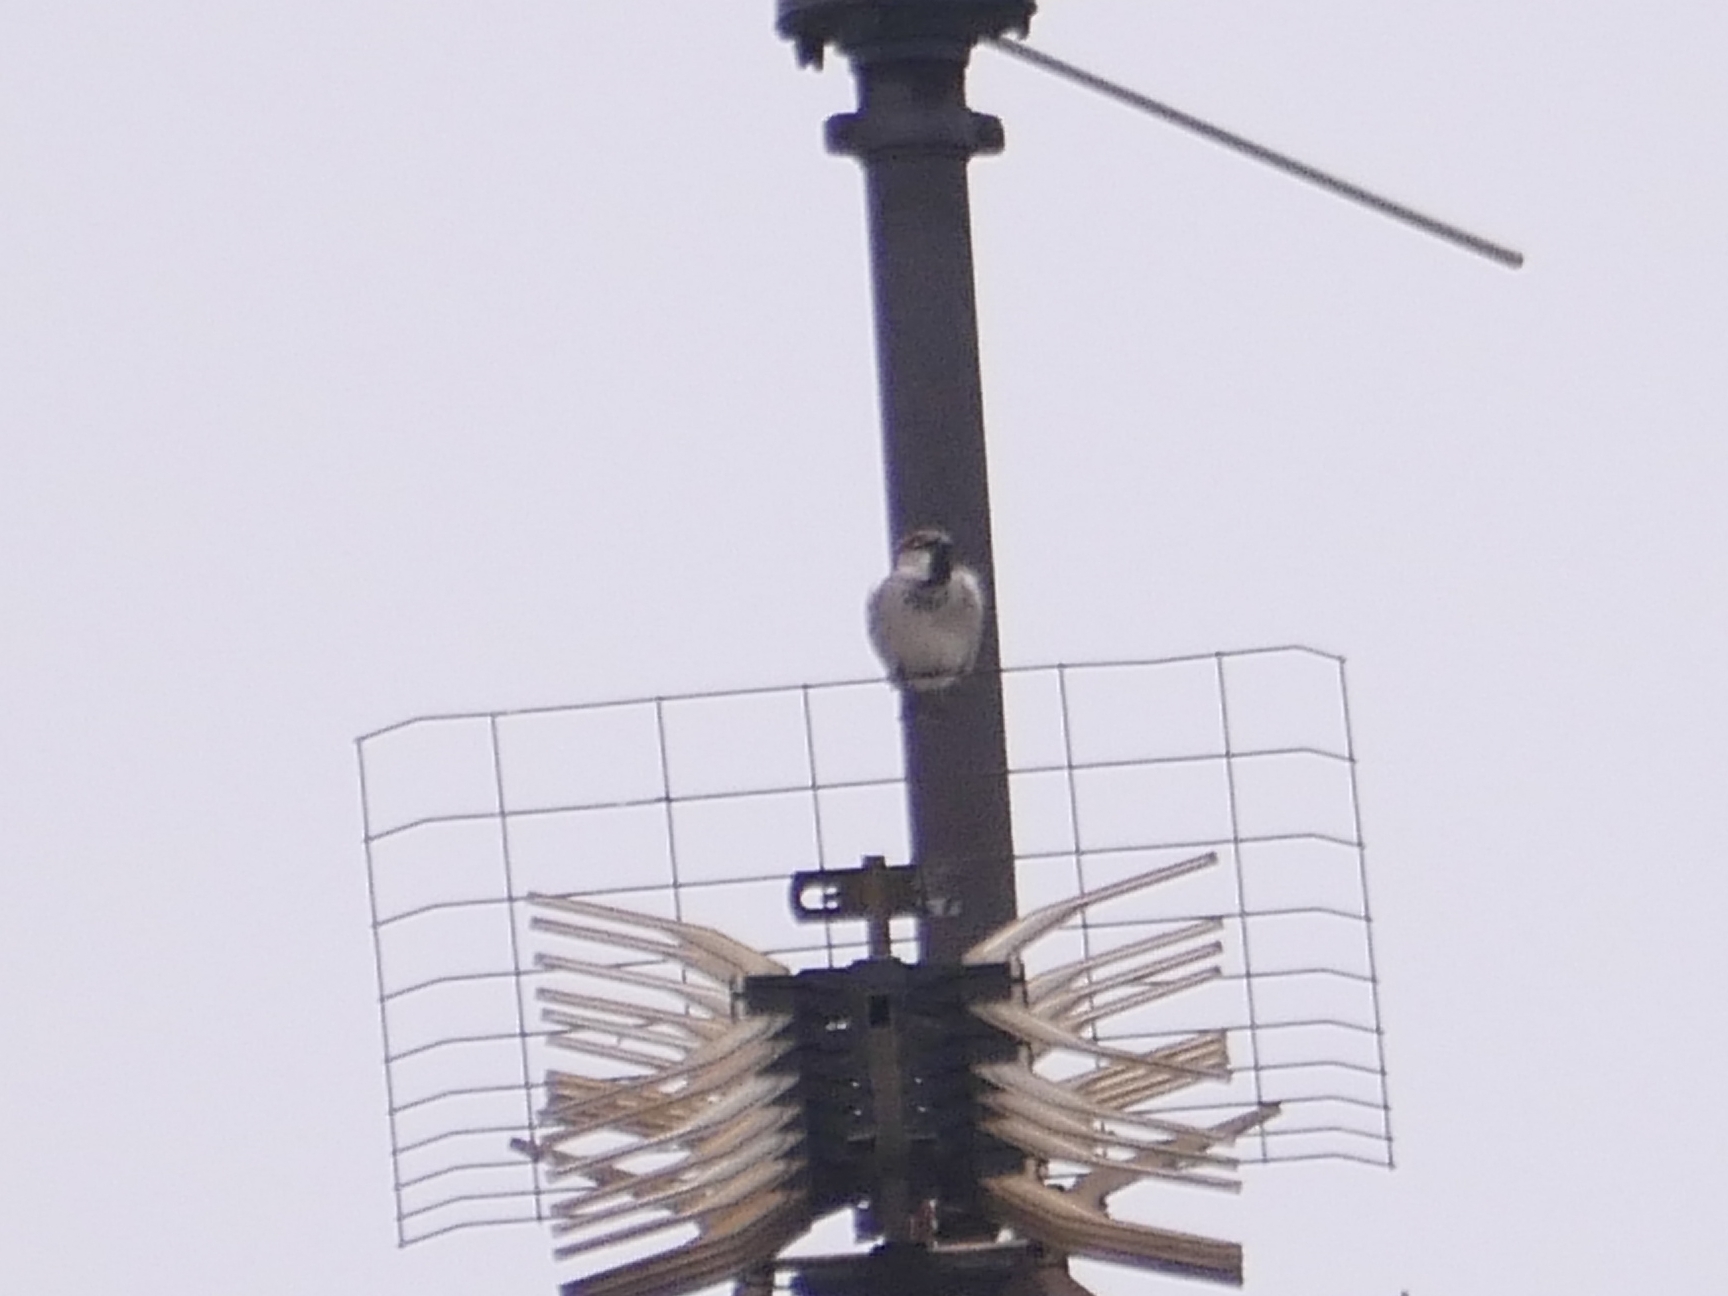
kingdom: Animalia
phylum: Chordata
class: Aves
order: Passeriformes
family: Passeridae
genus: Passer
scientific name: Passer domesticus
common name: House sparrow
